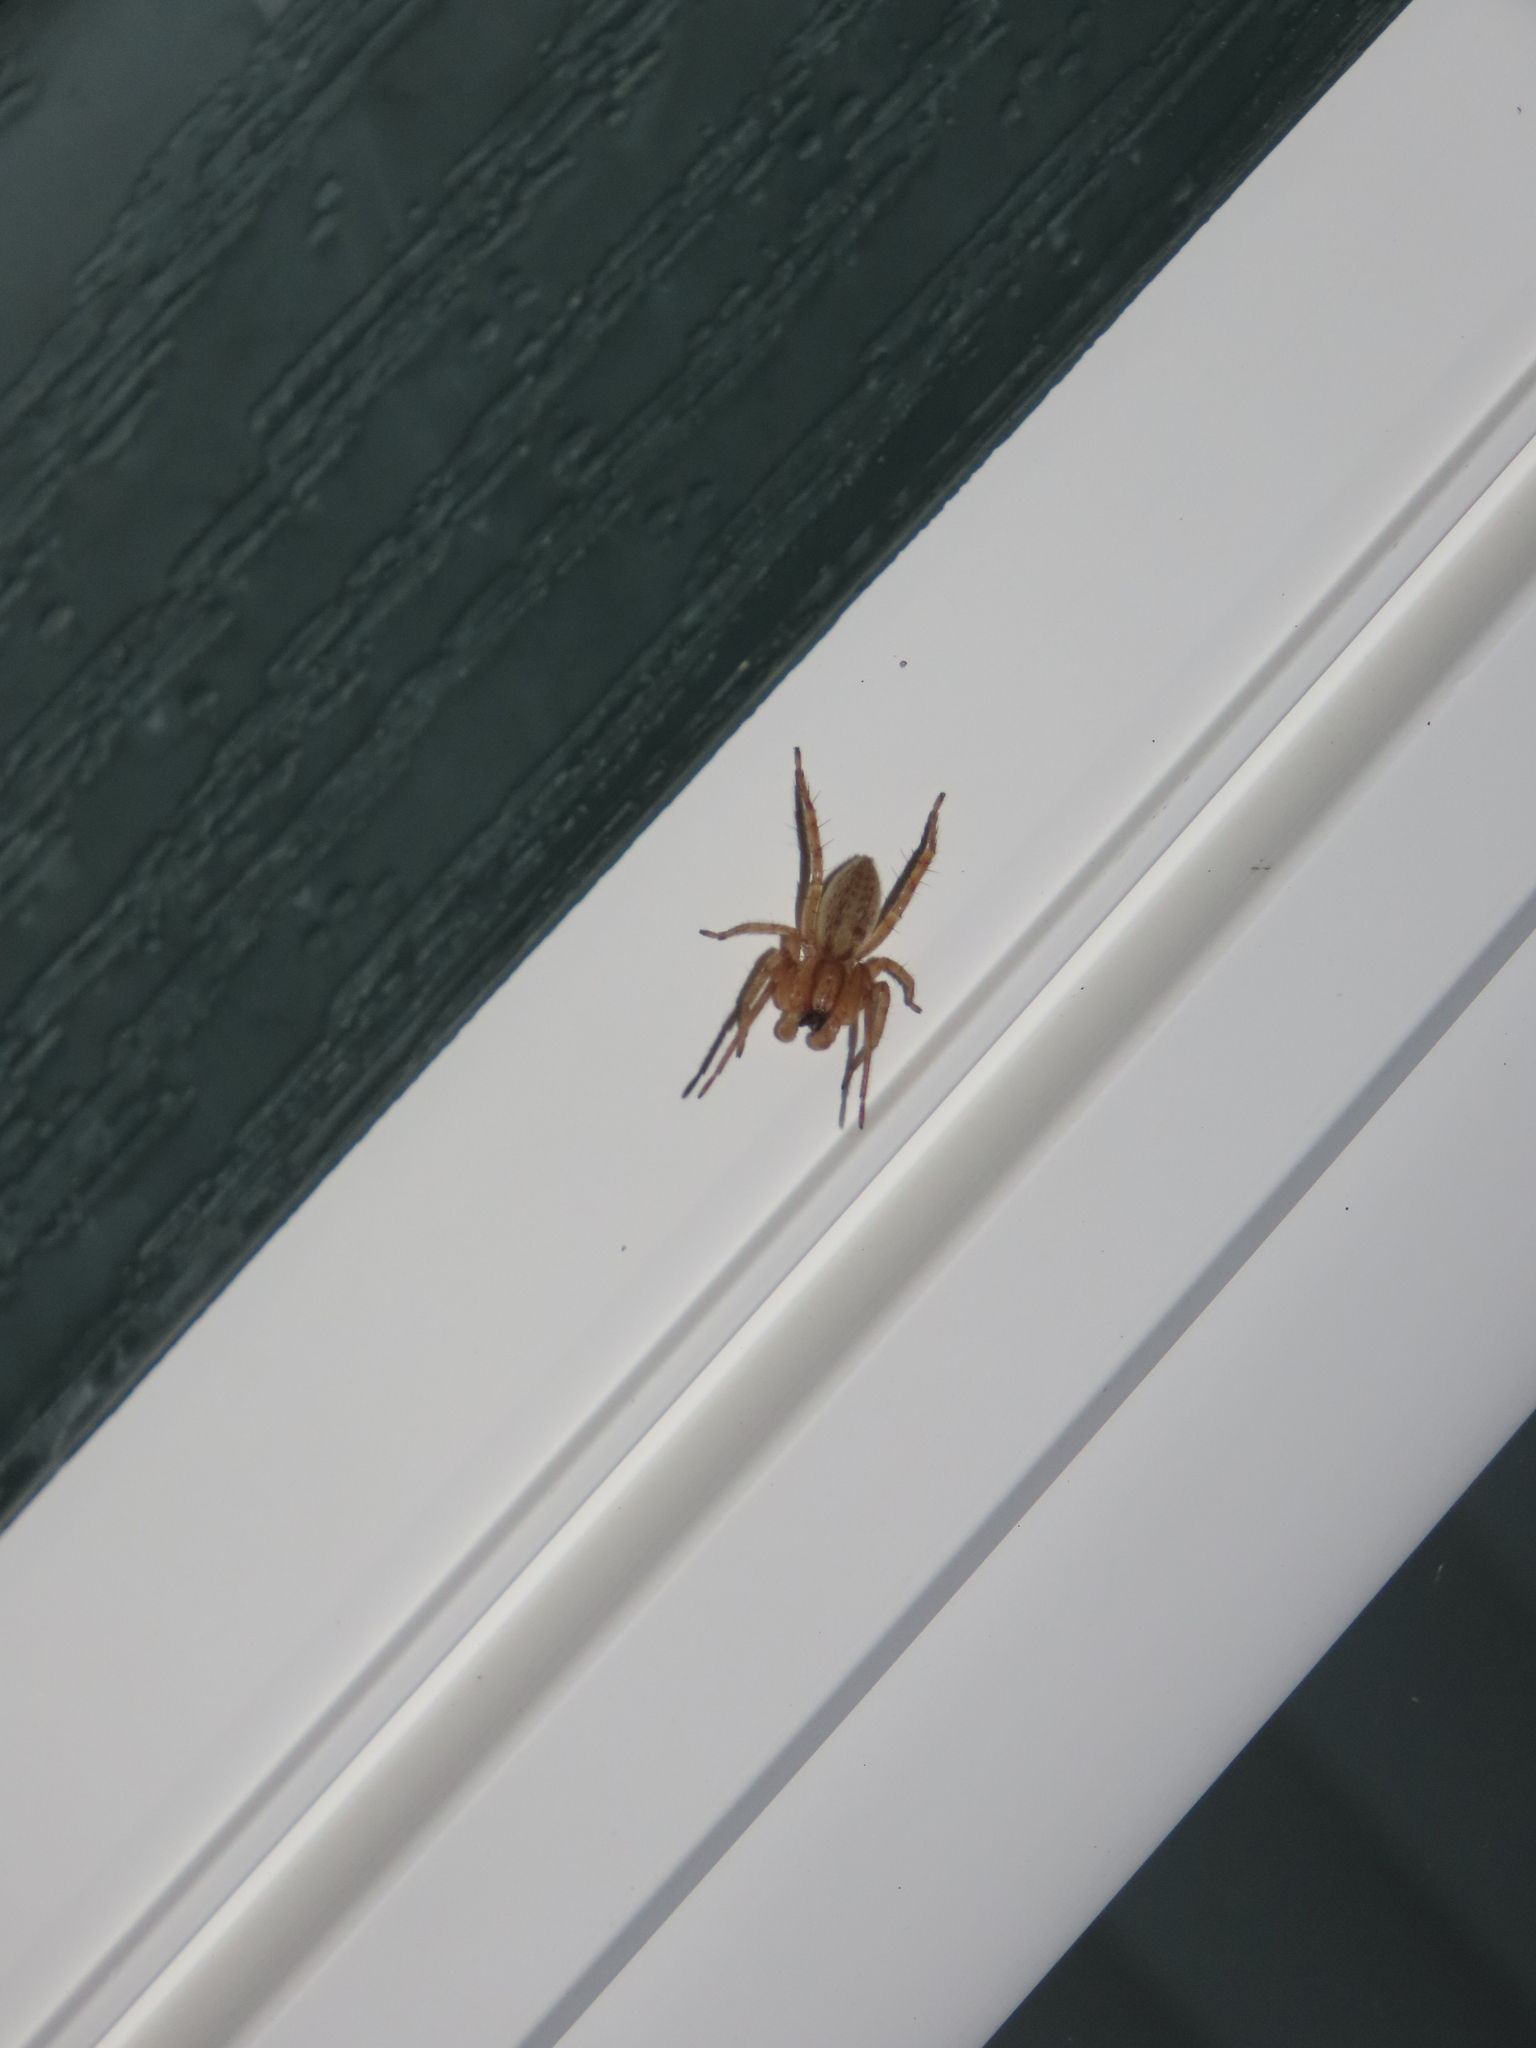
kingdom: Animalia
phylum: Arthropoda
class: Arachnida
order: Araneae
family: Anyphaenidae
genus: Hibana
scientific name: Hibana gracilis
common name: Garden ghost spider
